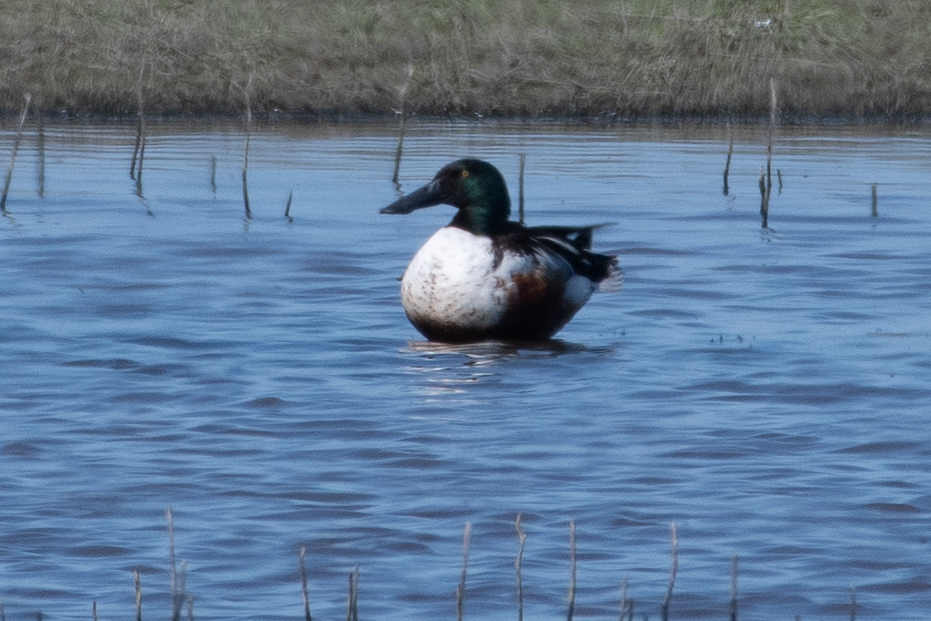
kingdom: Animalia
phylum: Chordata
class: Aves
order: Anseriformes
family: Anatidae
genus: Spatula
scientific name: Spatula clypeata
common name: Northern shoveler
